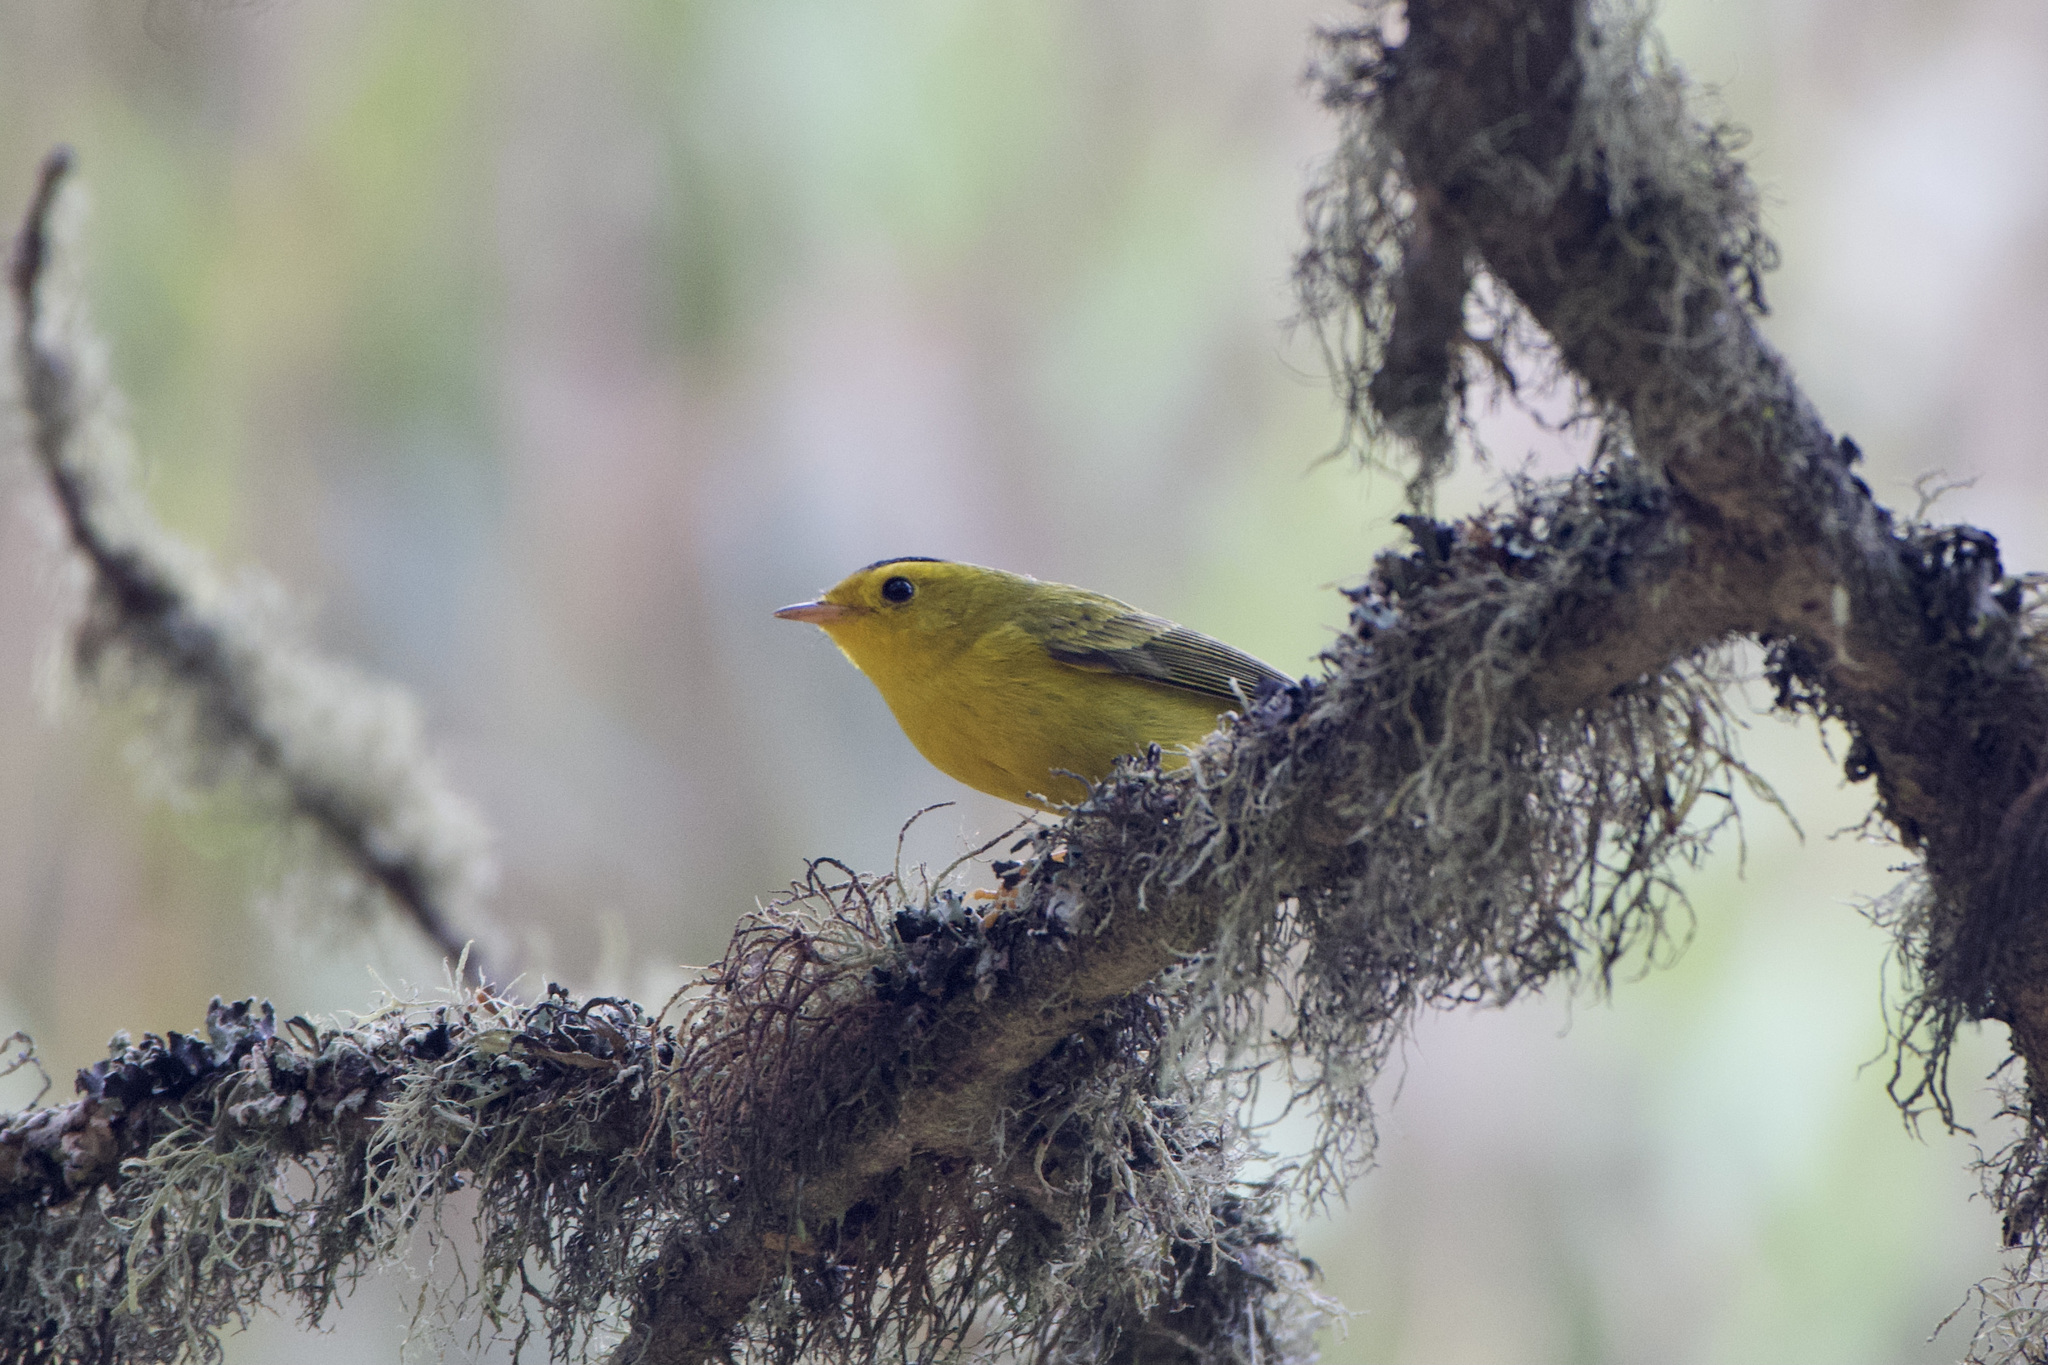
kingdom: Animalia
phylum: Chordata
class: Aves
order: Passeriformes
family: Parulidae
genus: Cardellina
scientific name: Cardellina pusilla
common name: Wilson's warbler
